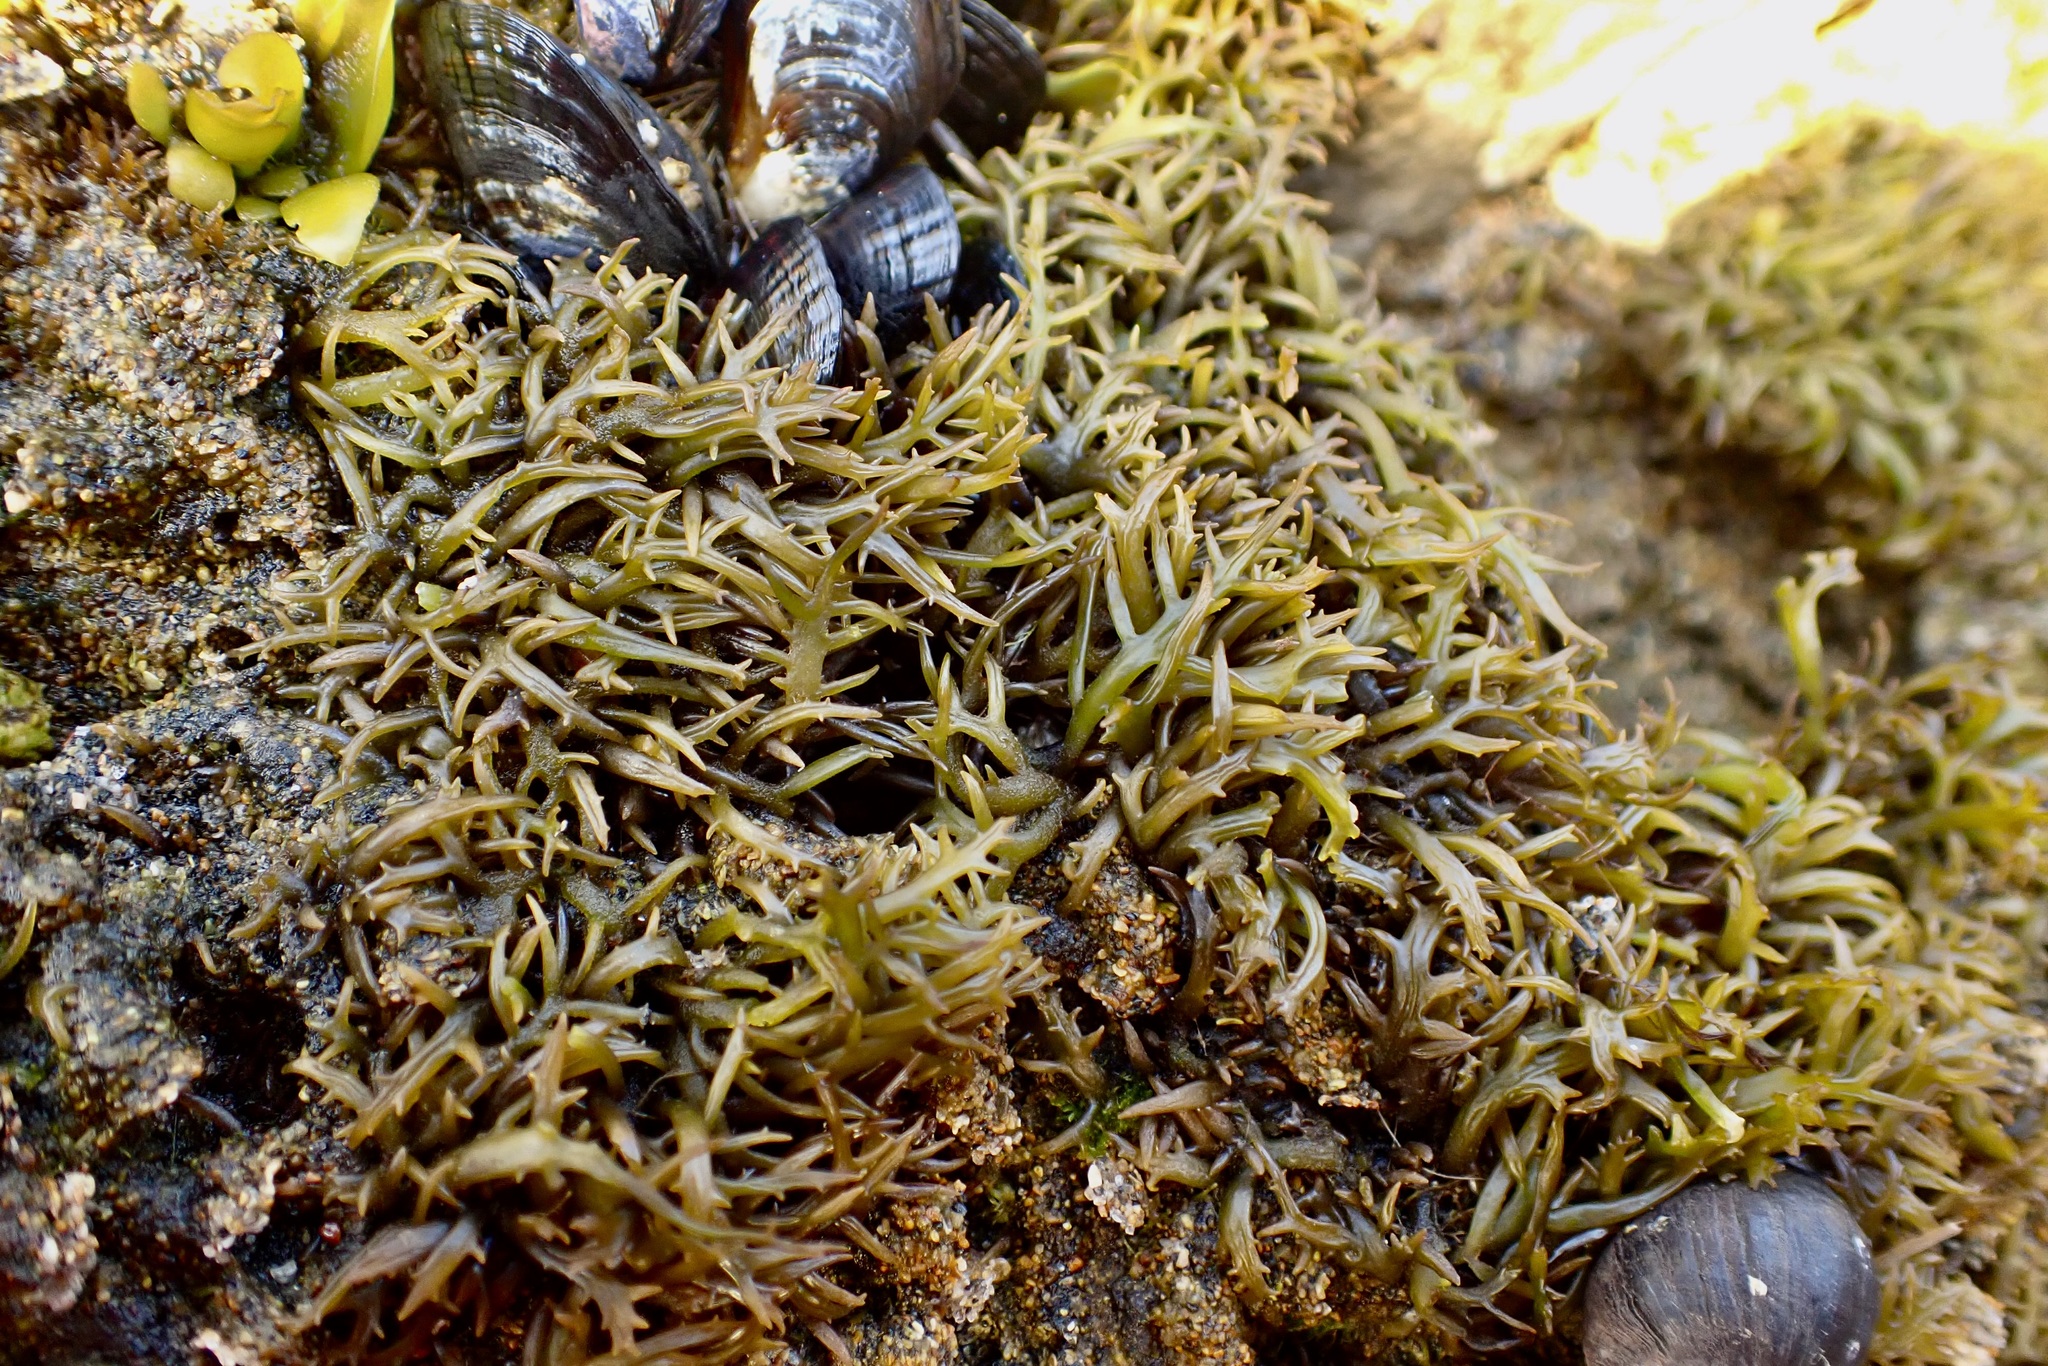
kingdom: Plantae
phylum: Rhodophyta
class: Florideophyceae
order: Gigartinales
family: Gigartinaceae
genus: Chondracanthus
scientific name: Chondracanthus canaliculatus
